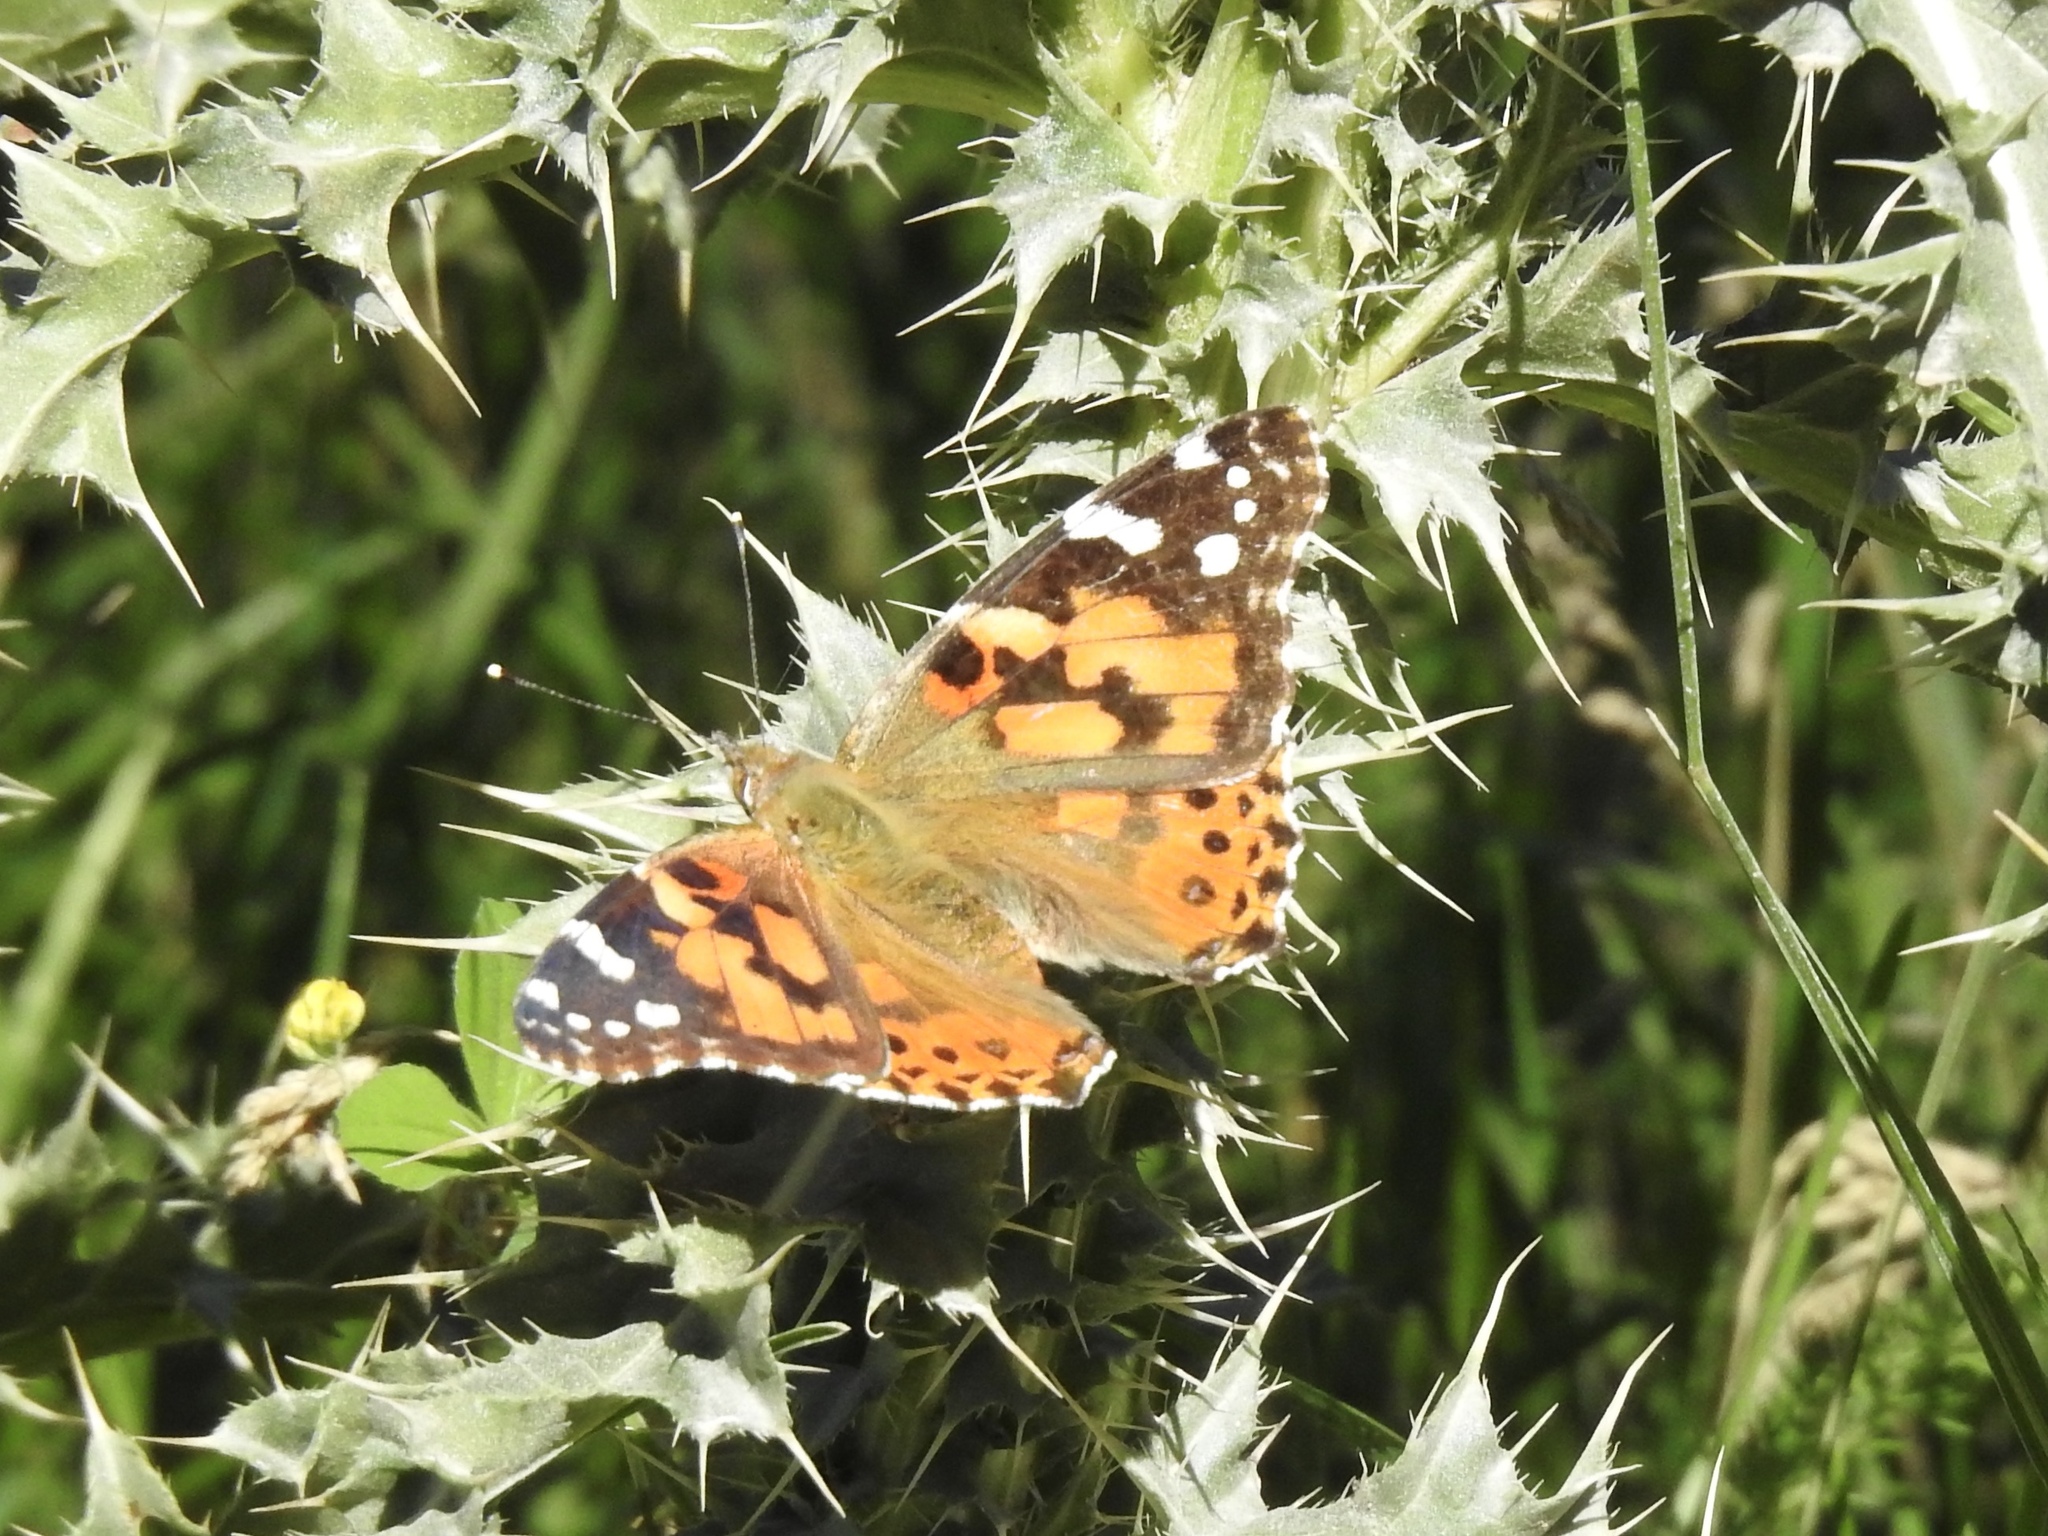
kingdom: Animalia
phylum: Arthropoda
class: Insecta
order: Lepidoptera
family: Nymphalidae
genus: Vanessa
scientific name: Vanessa cardui
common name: Painted lady
